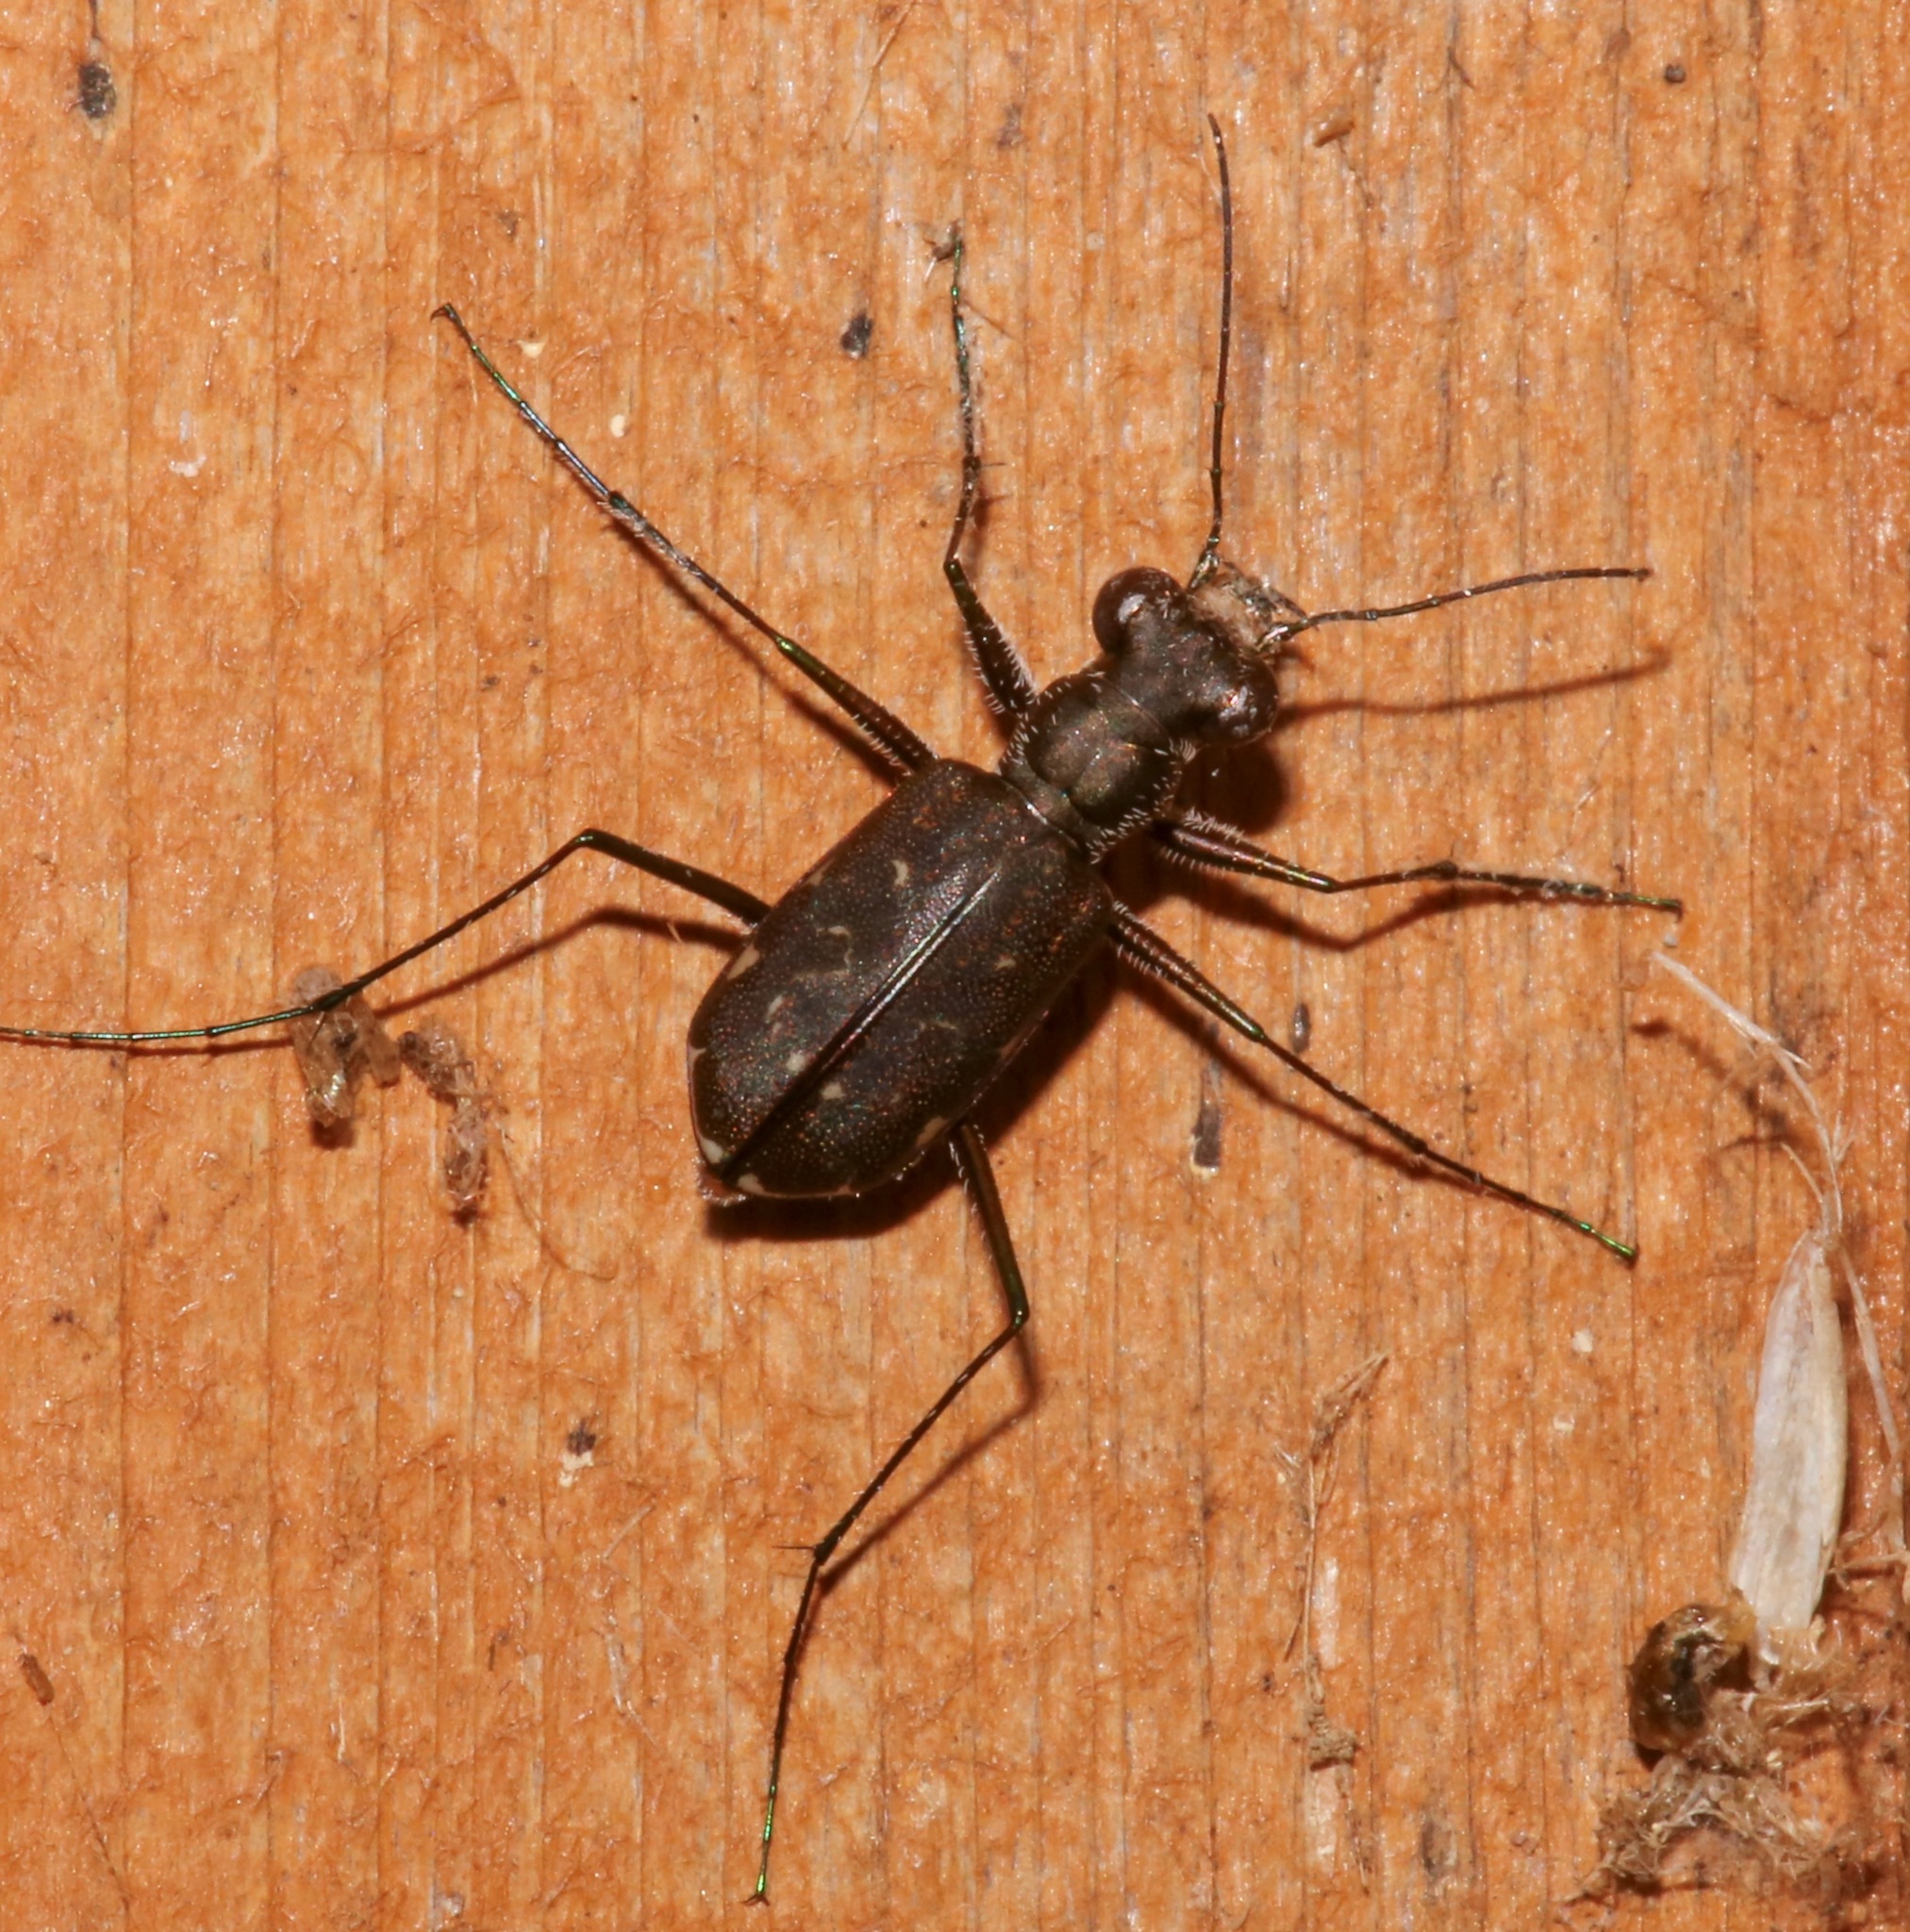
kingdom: Animalia
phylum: Arthropoda
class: Insecta
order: Coleoptera
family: Carabidae
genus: Cicindela
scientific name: Cicindela trifasciata
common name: Mudflat tiger beetle
